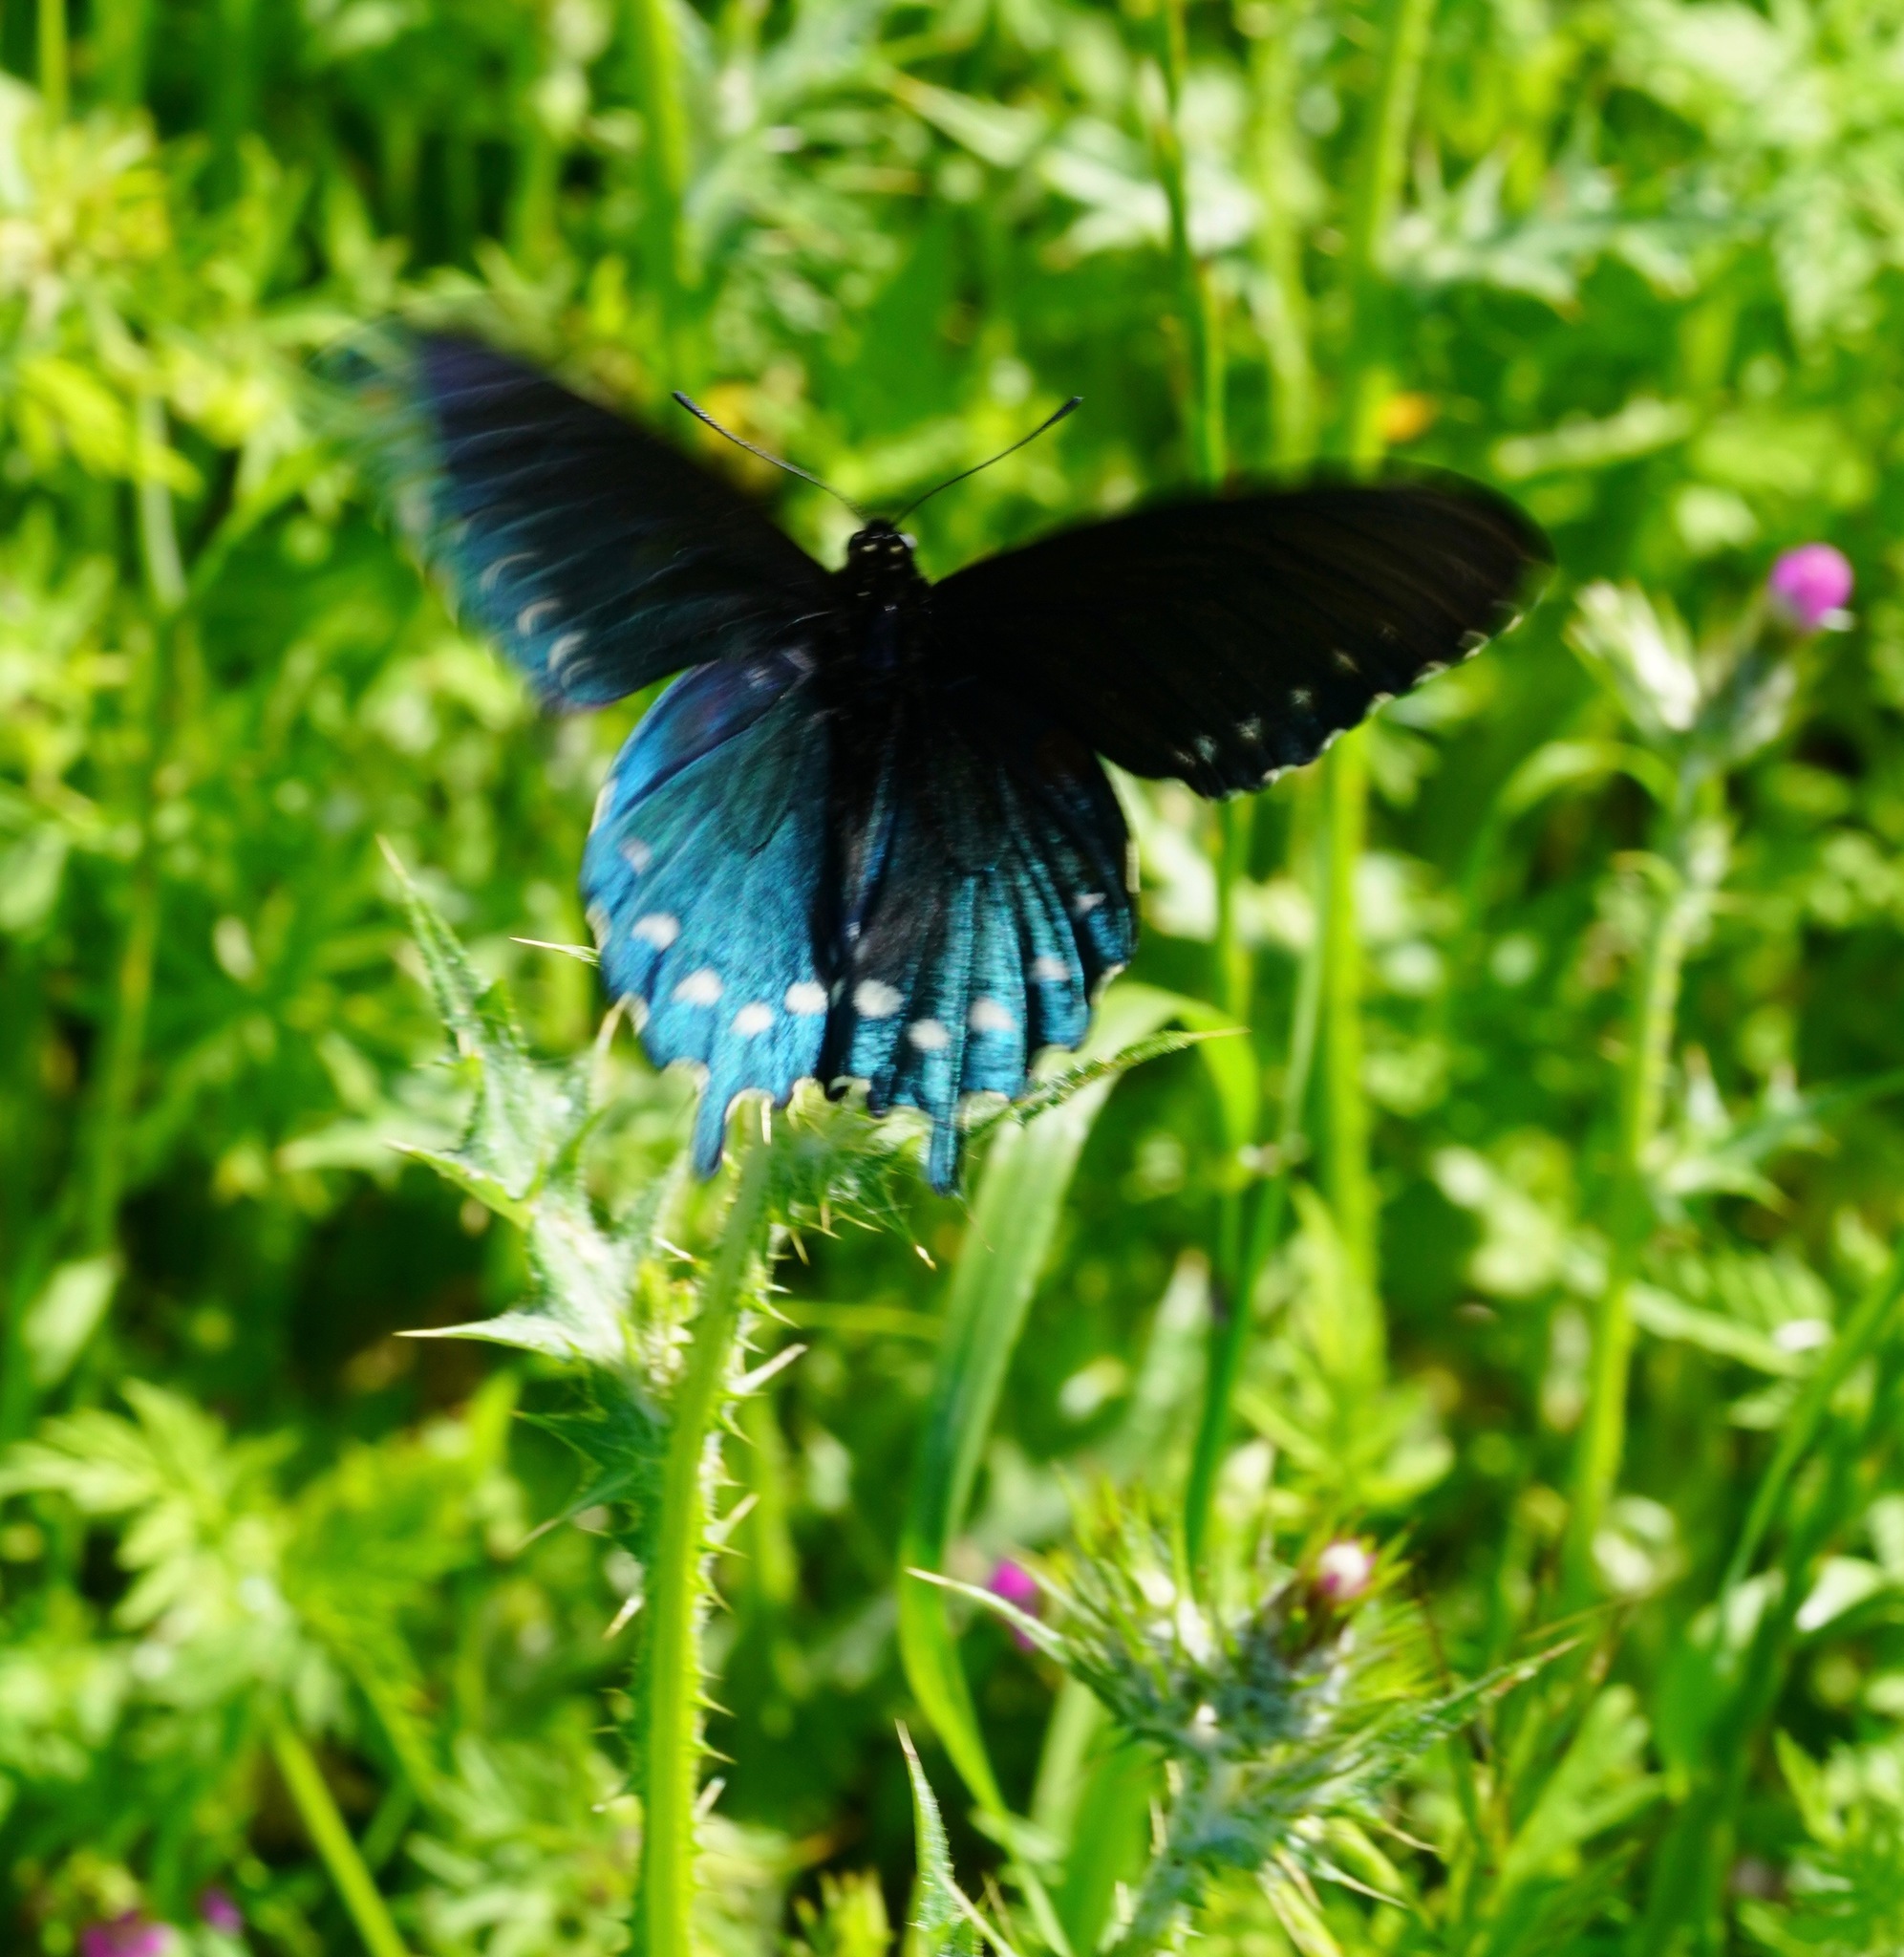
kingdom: Animalia
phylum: Arthropoda
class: Insecta
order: Lepidoptera
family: Papilionidae
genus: Battus
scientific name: Battus philenor
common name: Pipevine swallowtail
